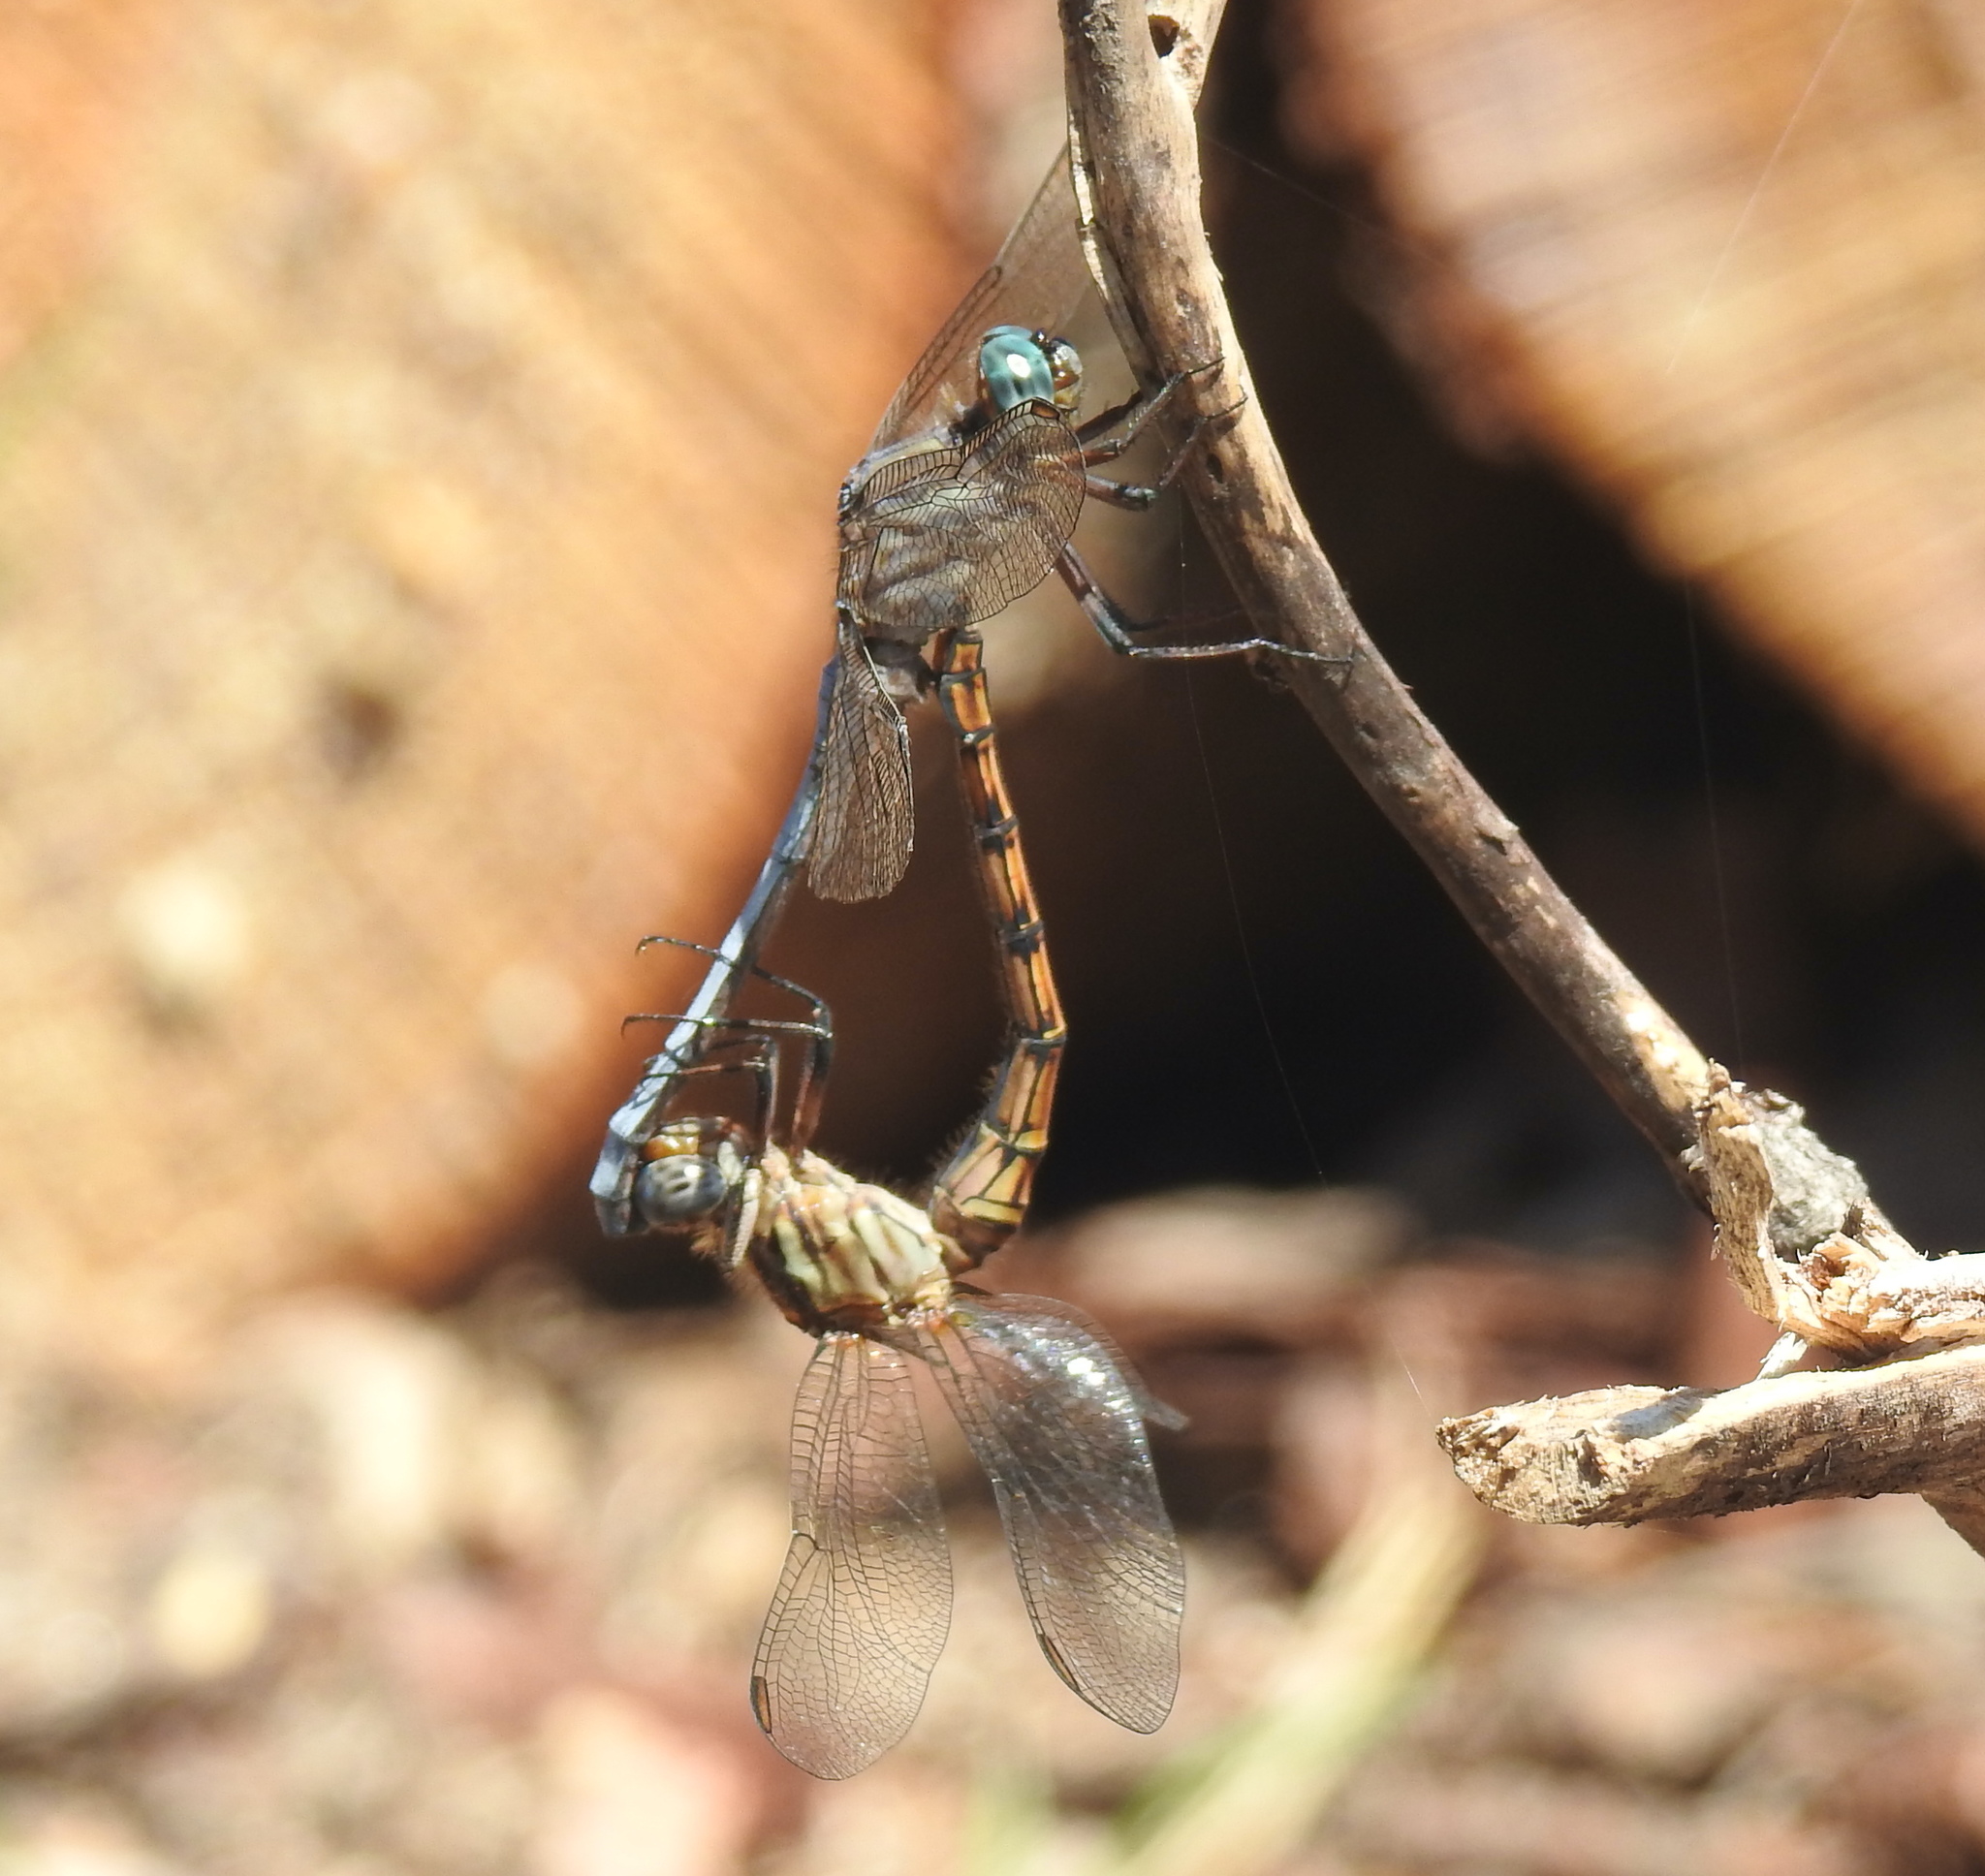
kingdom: Animalia
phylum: Arthropoda
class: Insecta
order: Odonata
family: Libellulidae
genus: Orthetrum
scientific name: Orthetrum julia
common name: Julia skimmer
